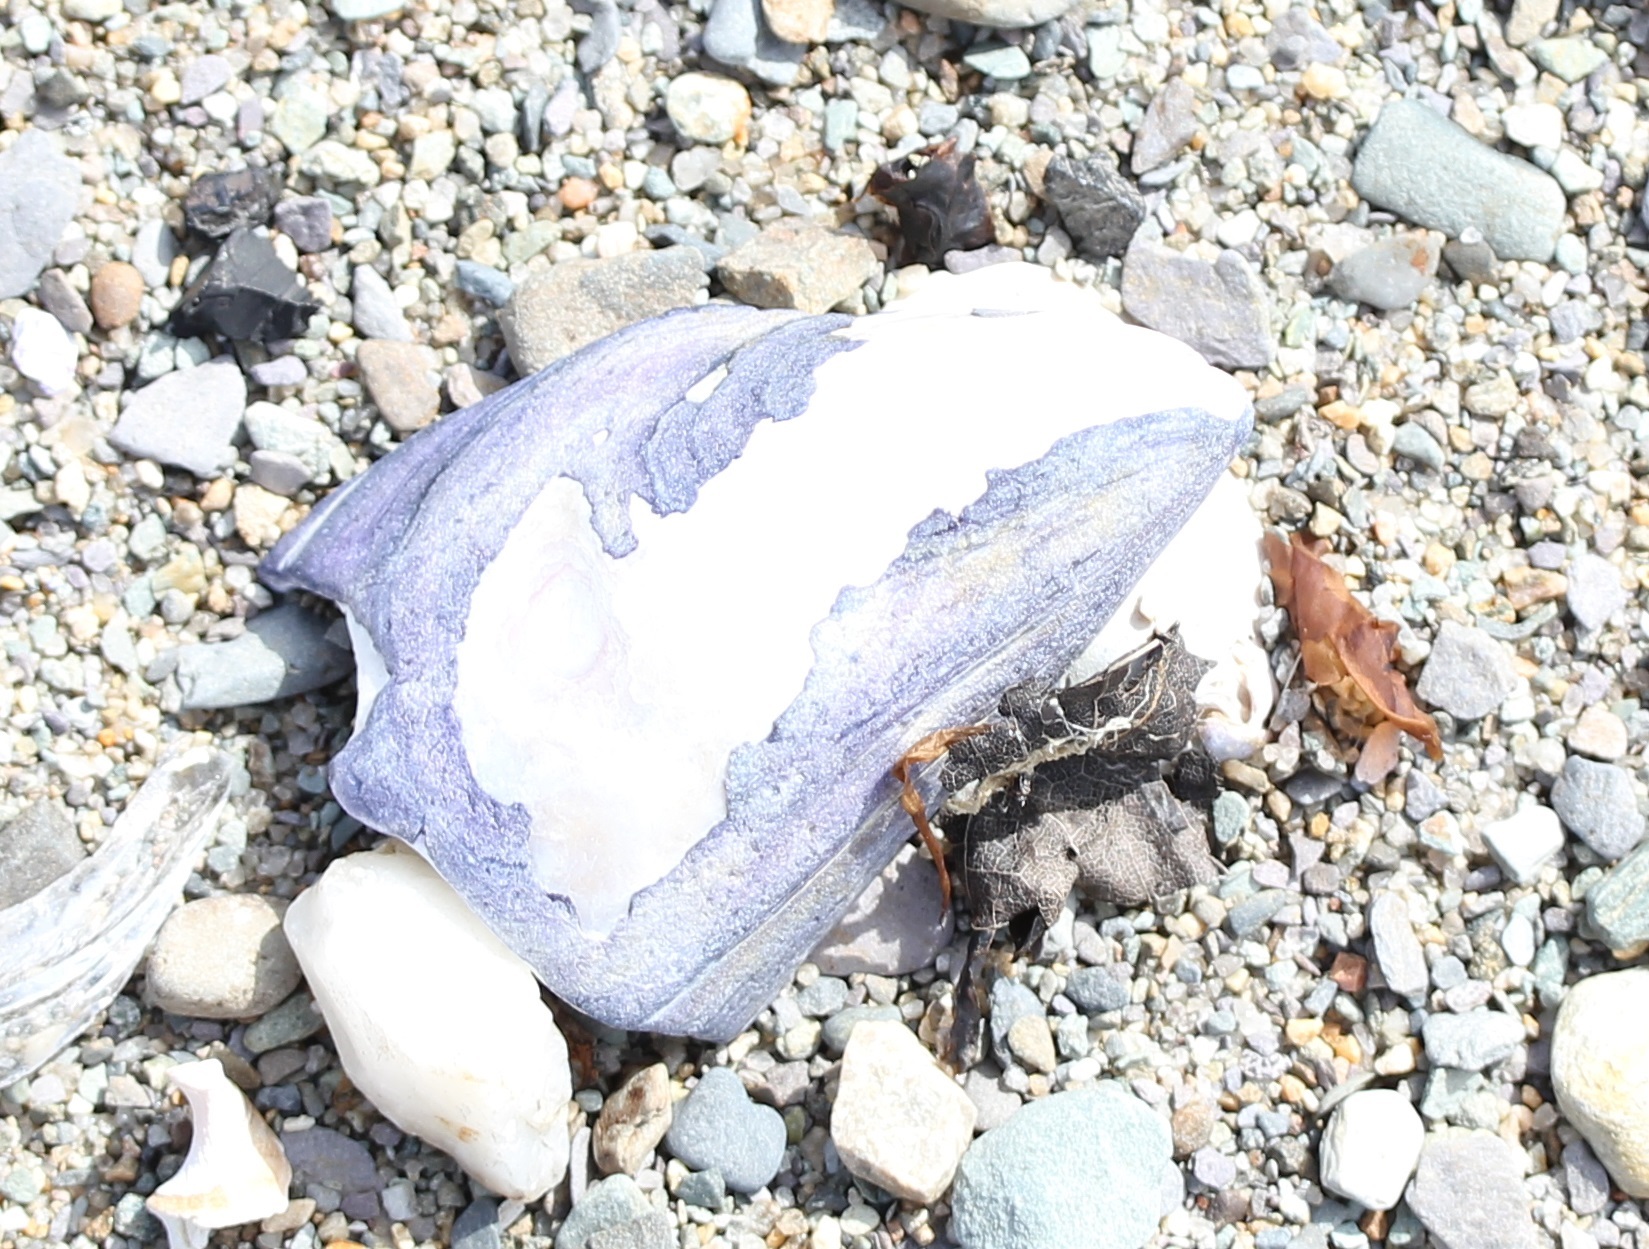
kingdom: Animalia
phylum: Mollusca
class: Bivalvia
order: Mytilida
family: Mytilidae
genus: Mytilus
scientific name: Mytilus edulis
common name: Blue mussel
